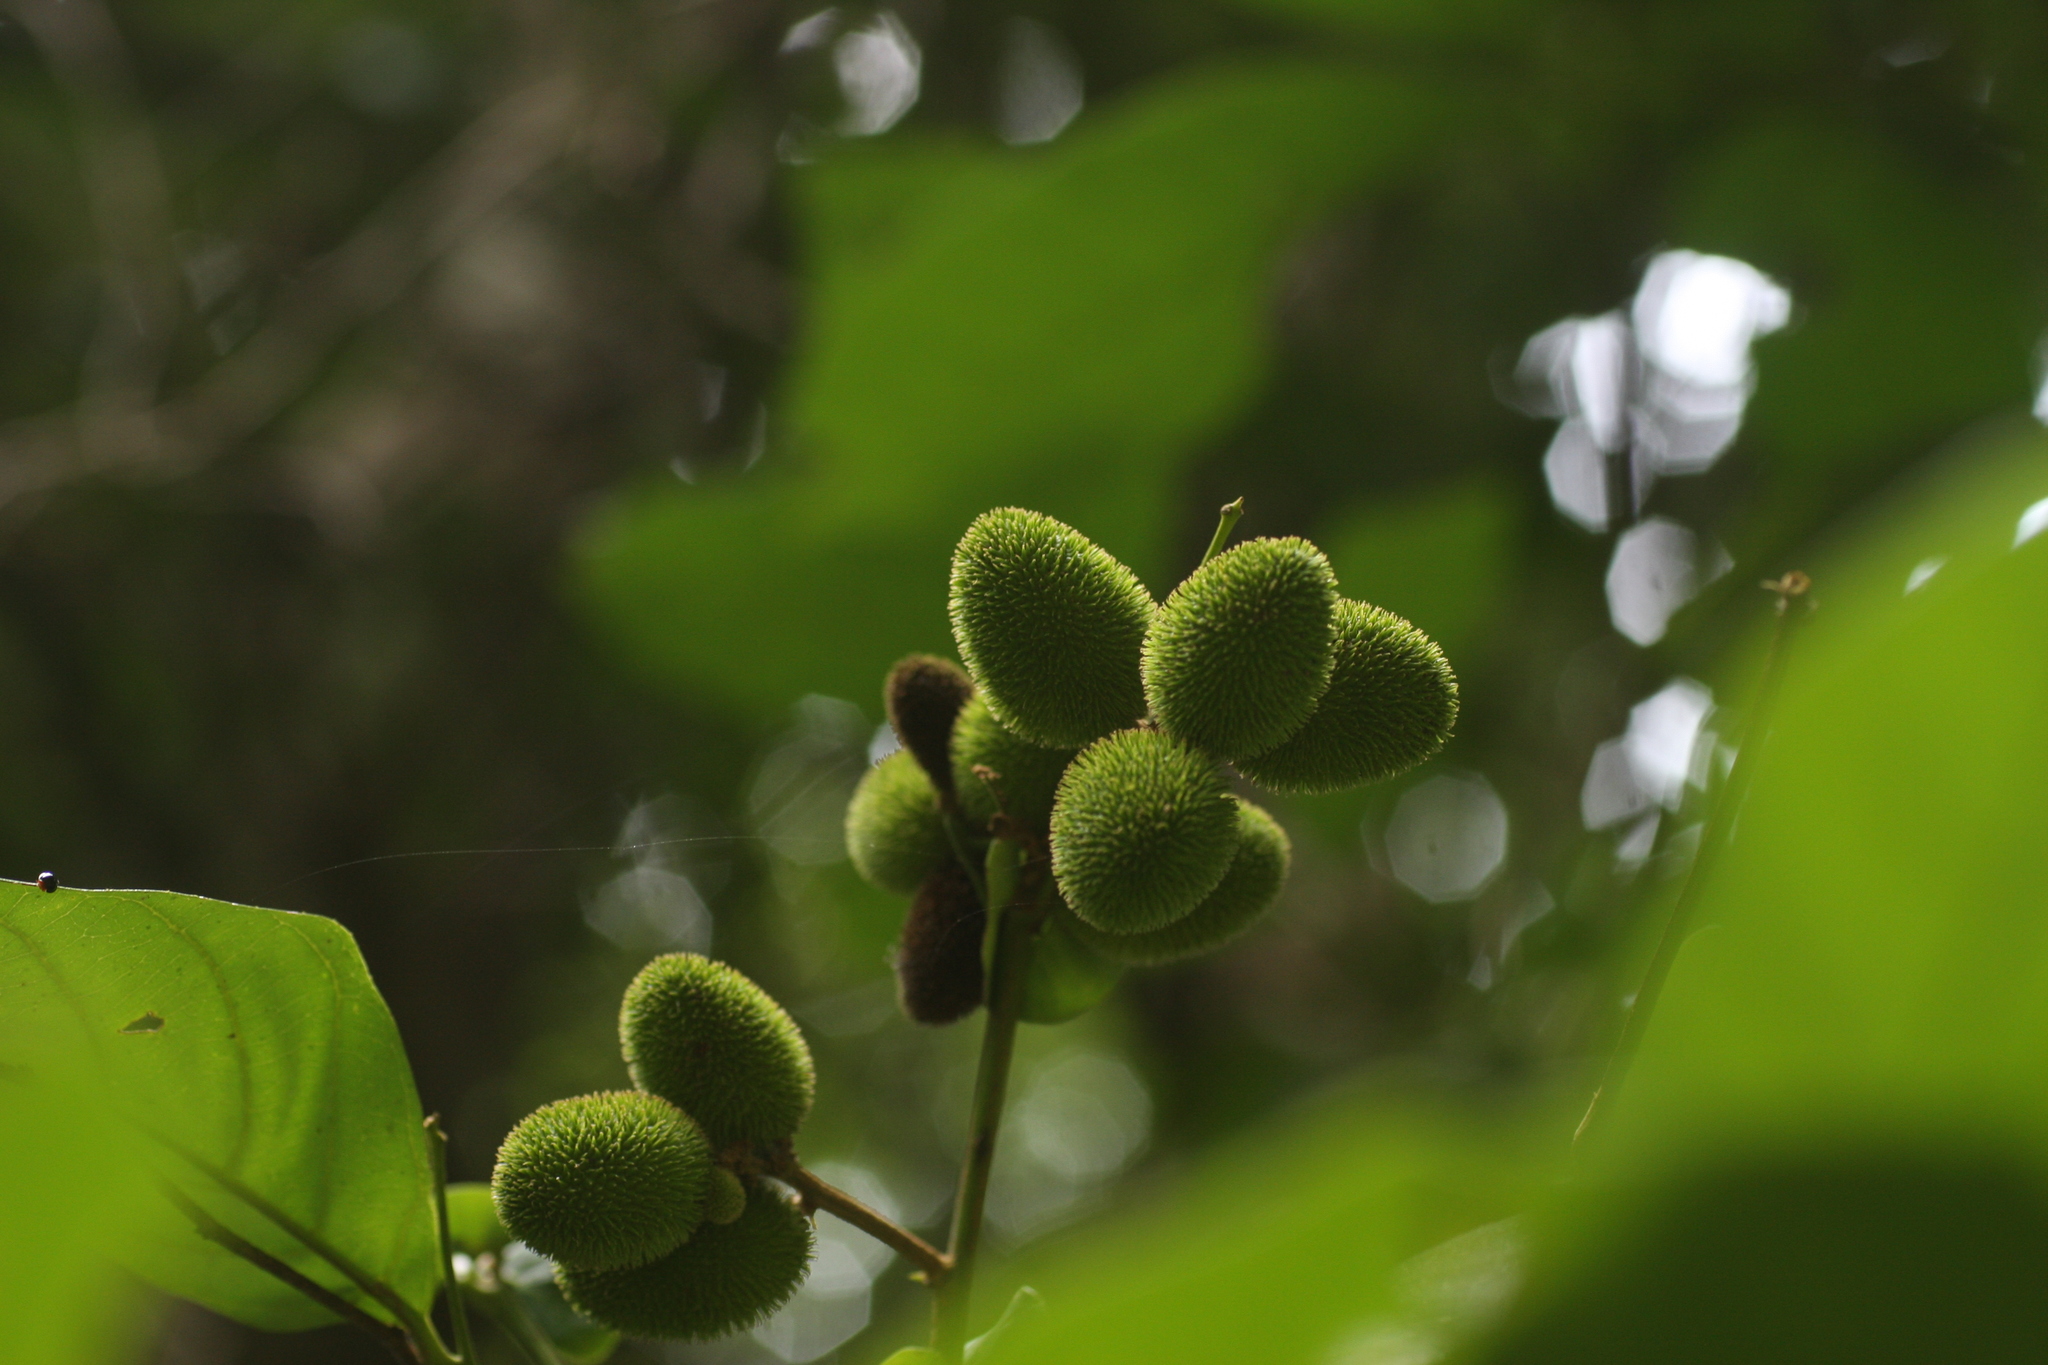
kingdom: Plantae
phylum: Tracheophyta
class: Magnoliopsida
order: Sapindales
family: Sapindaceae
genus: Otonephelium
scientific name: Otonephelium stipulaceum
